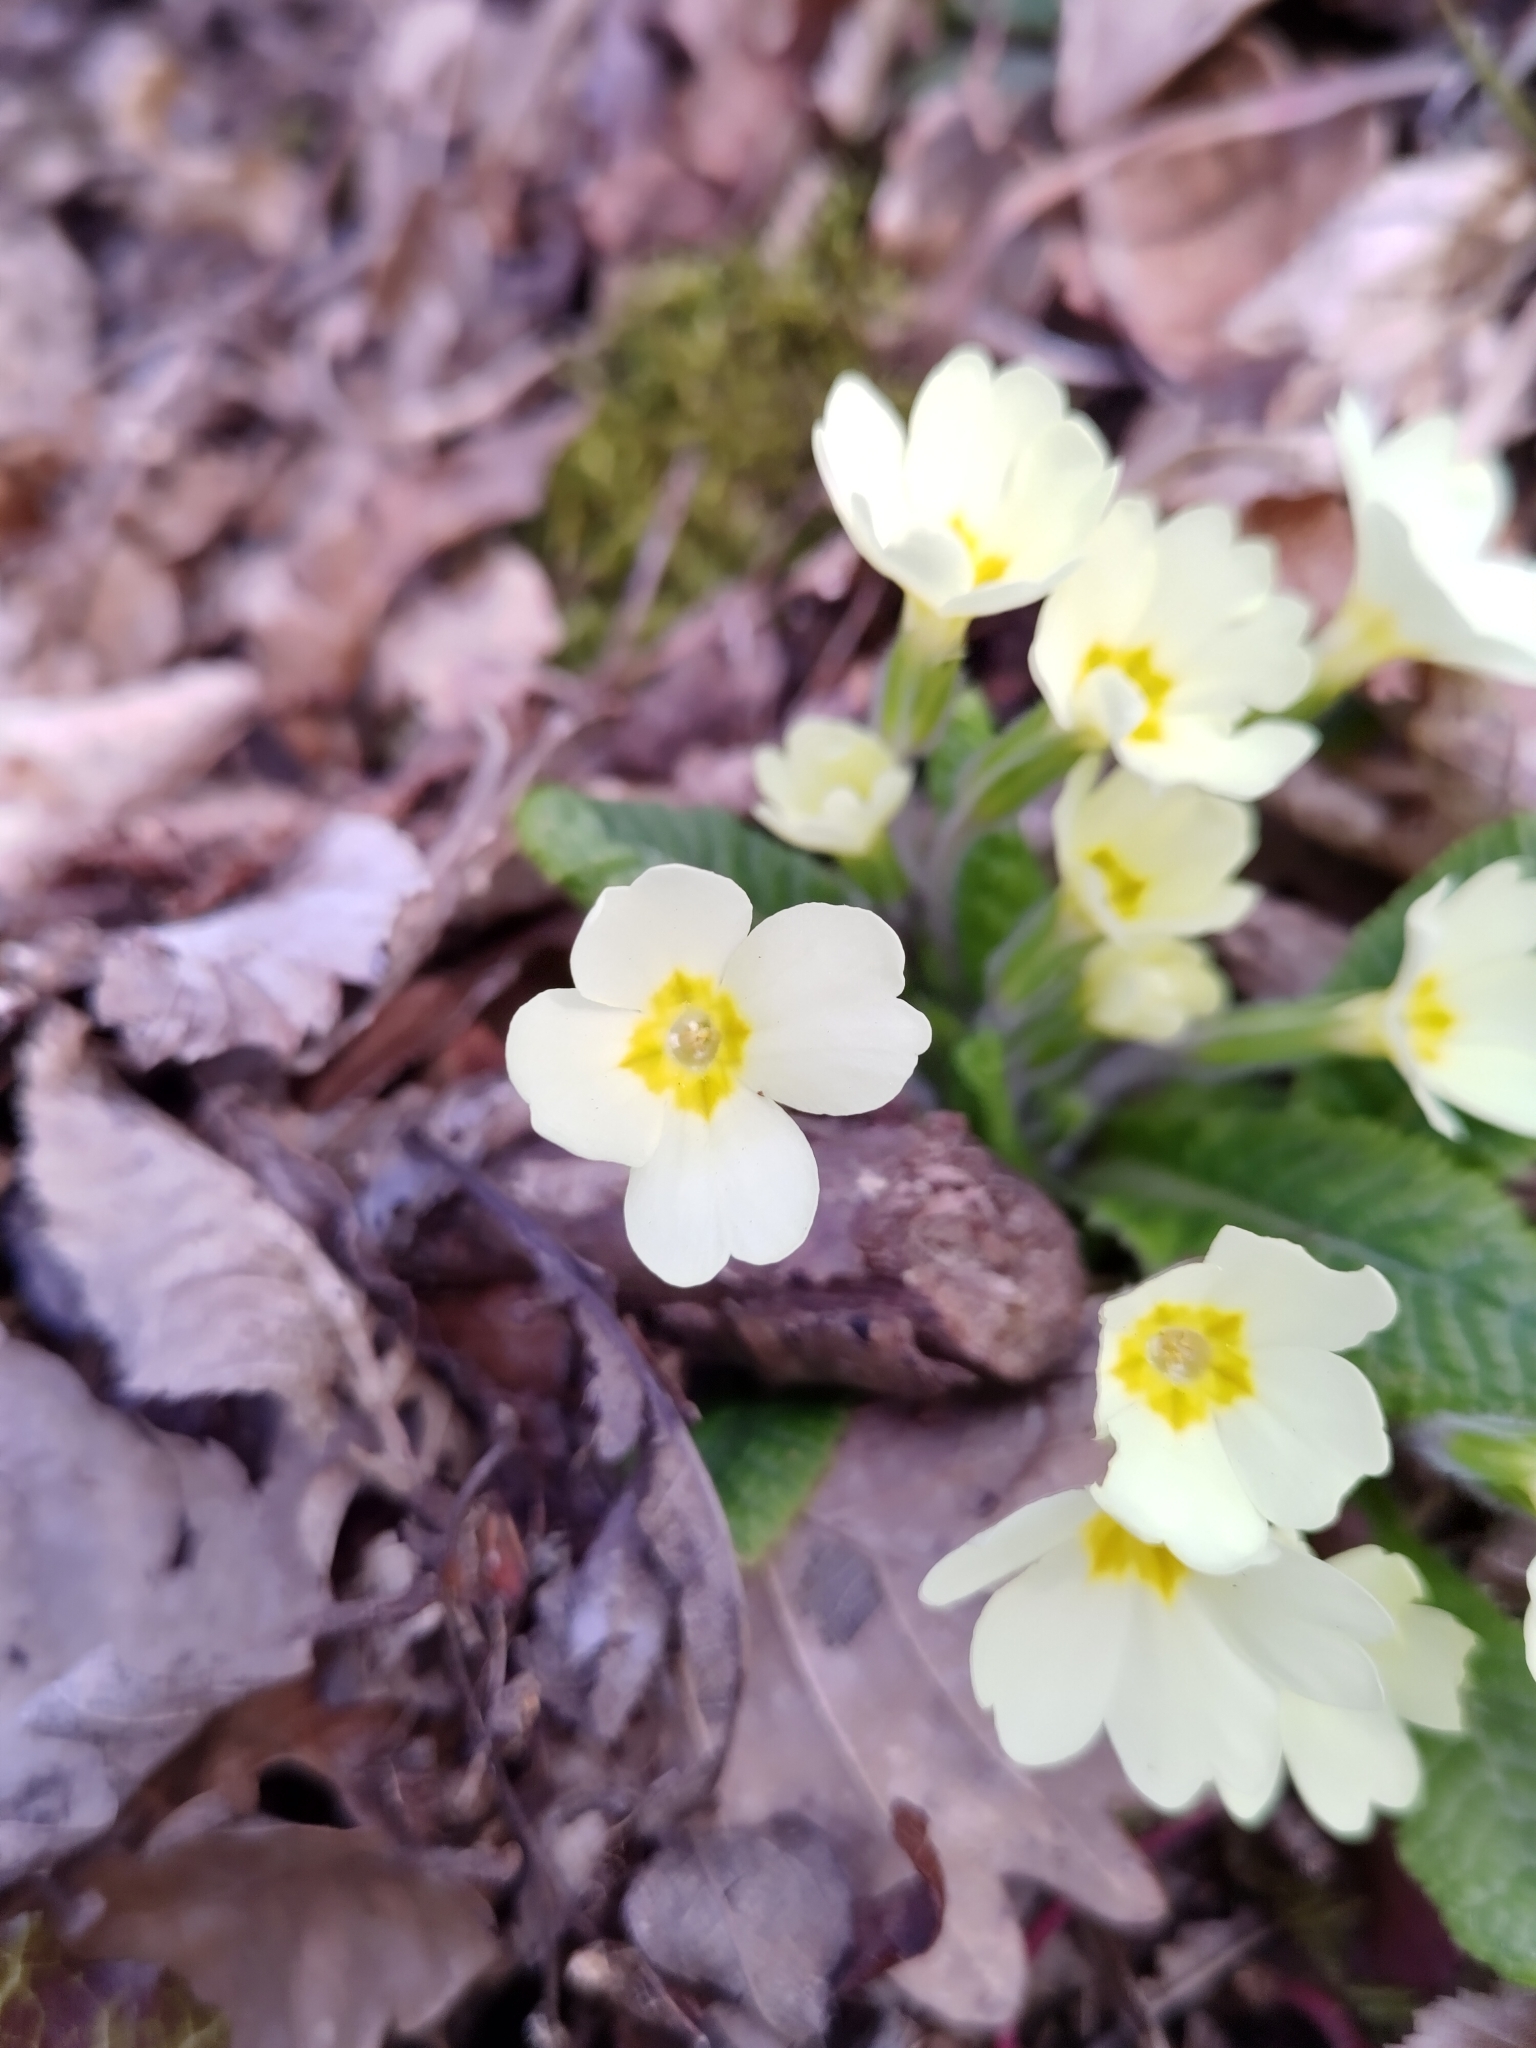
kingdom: Plantae
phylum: Tracheophyta
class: Magnoliopsida
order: Ericales
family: Primulaceae
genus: Primula
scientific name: Primula vulgaris
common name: Primrose
